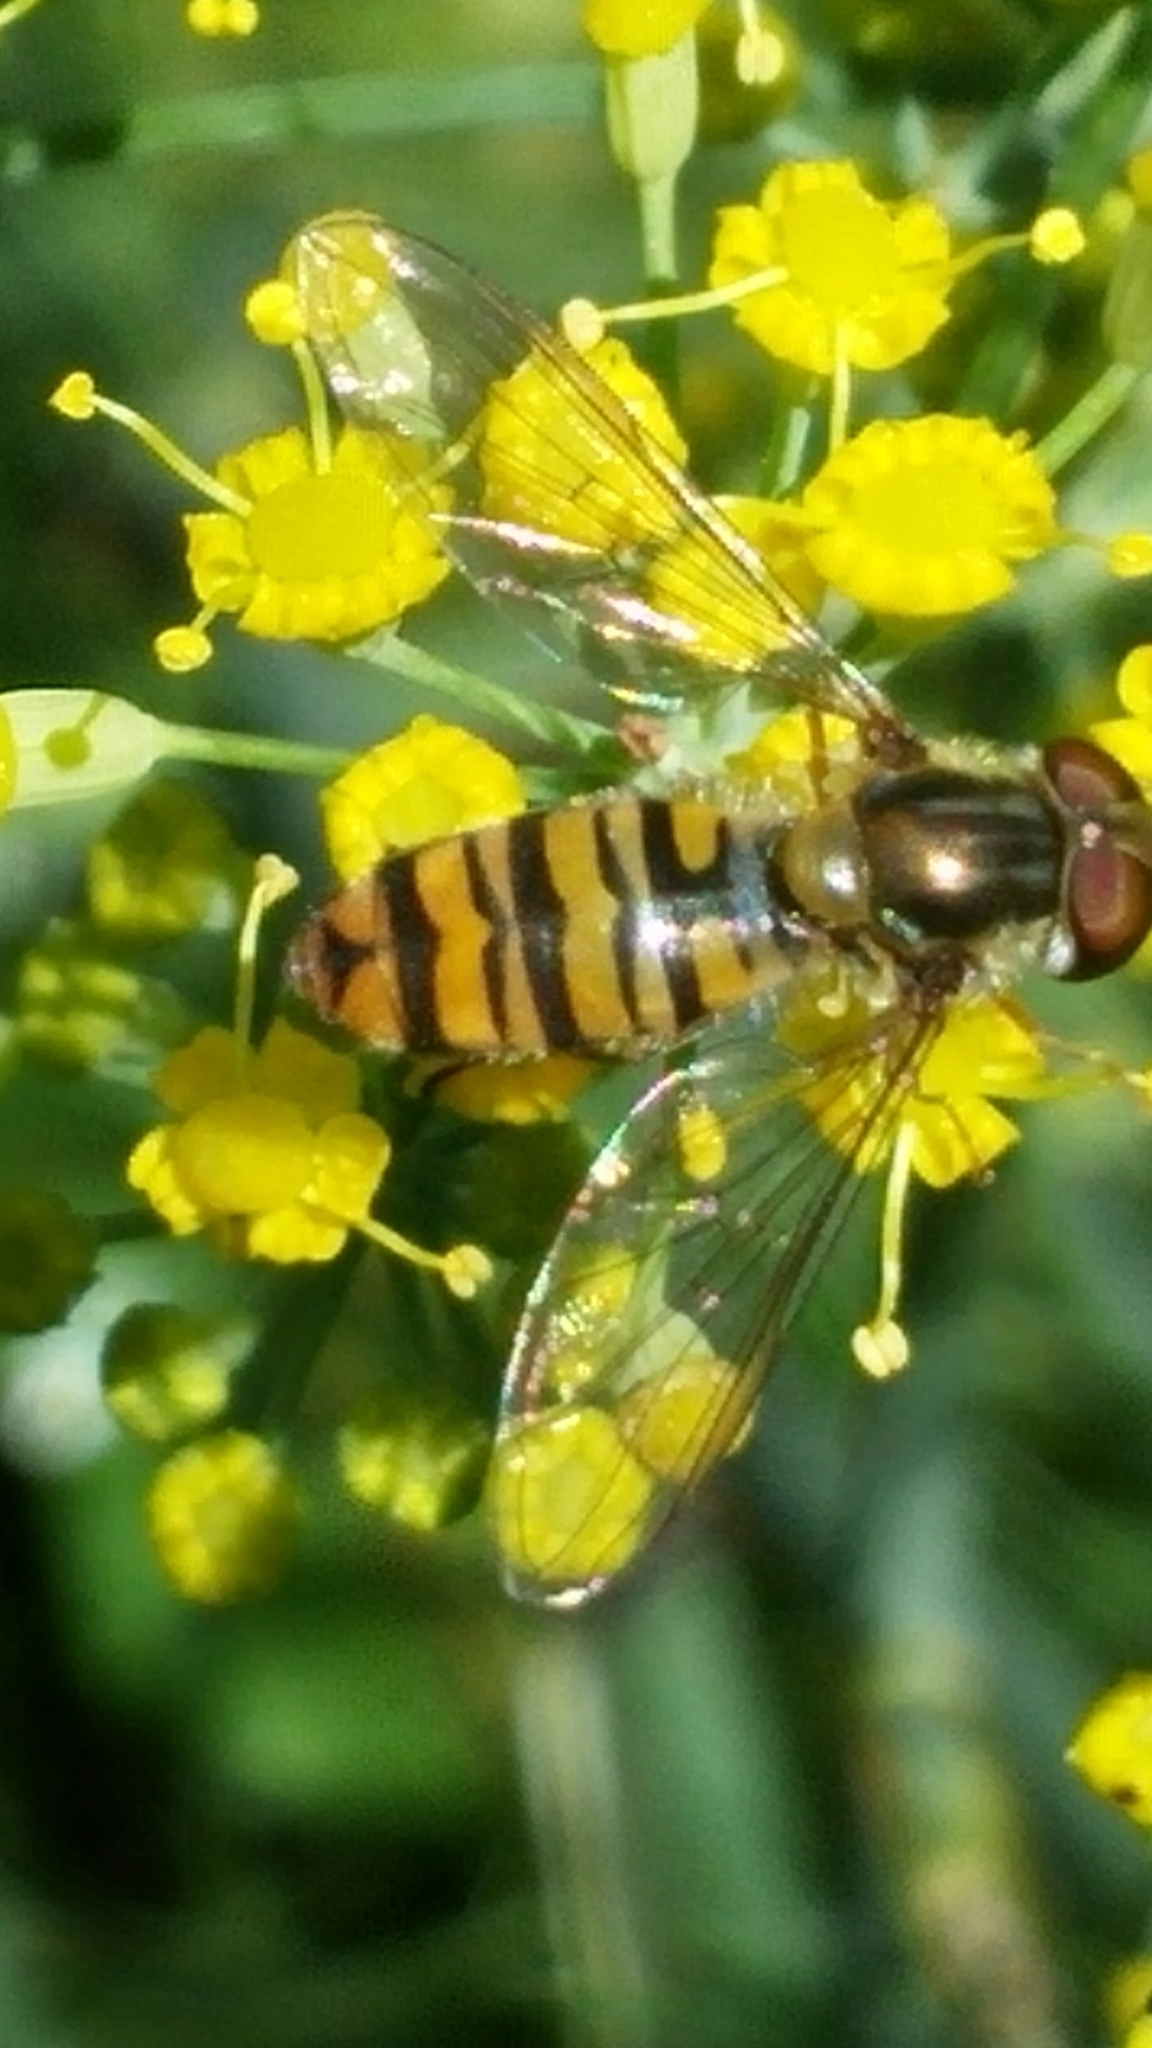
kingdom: Animalia
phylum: Arthropoda
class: Insecta
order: Diptera
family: Syrphidae
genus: Episyrphus
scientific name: Episyrphus balteatus
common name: Marmalade hoverfly
